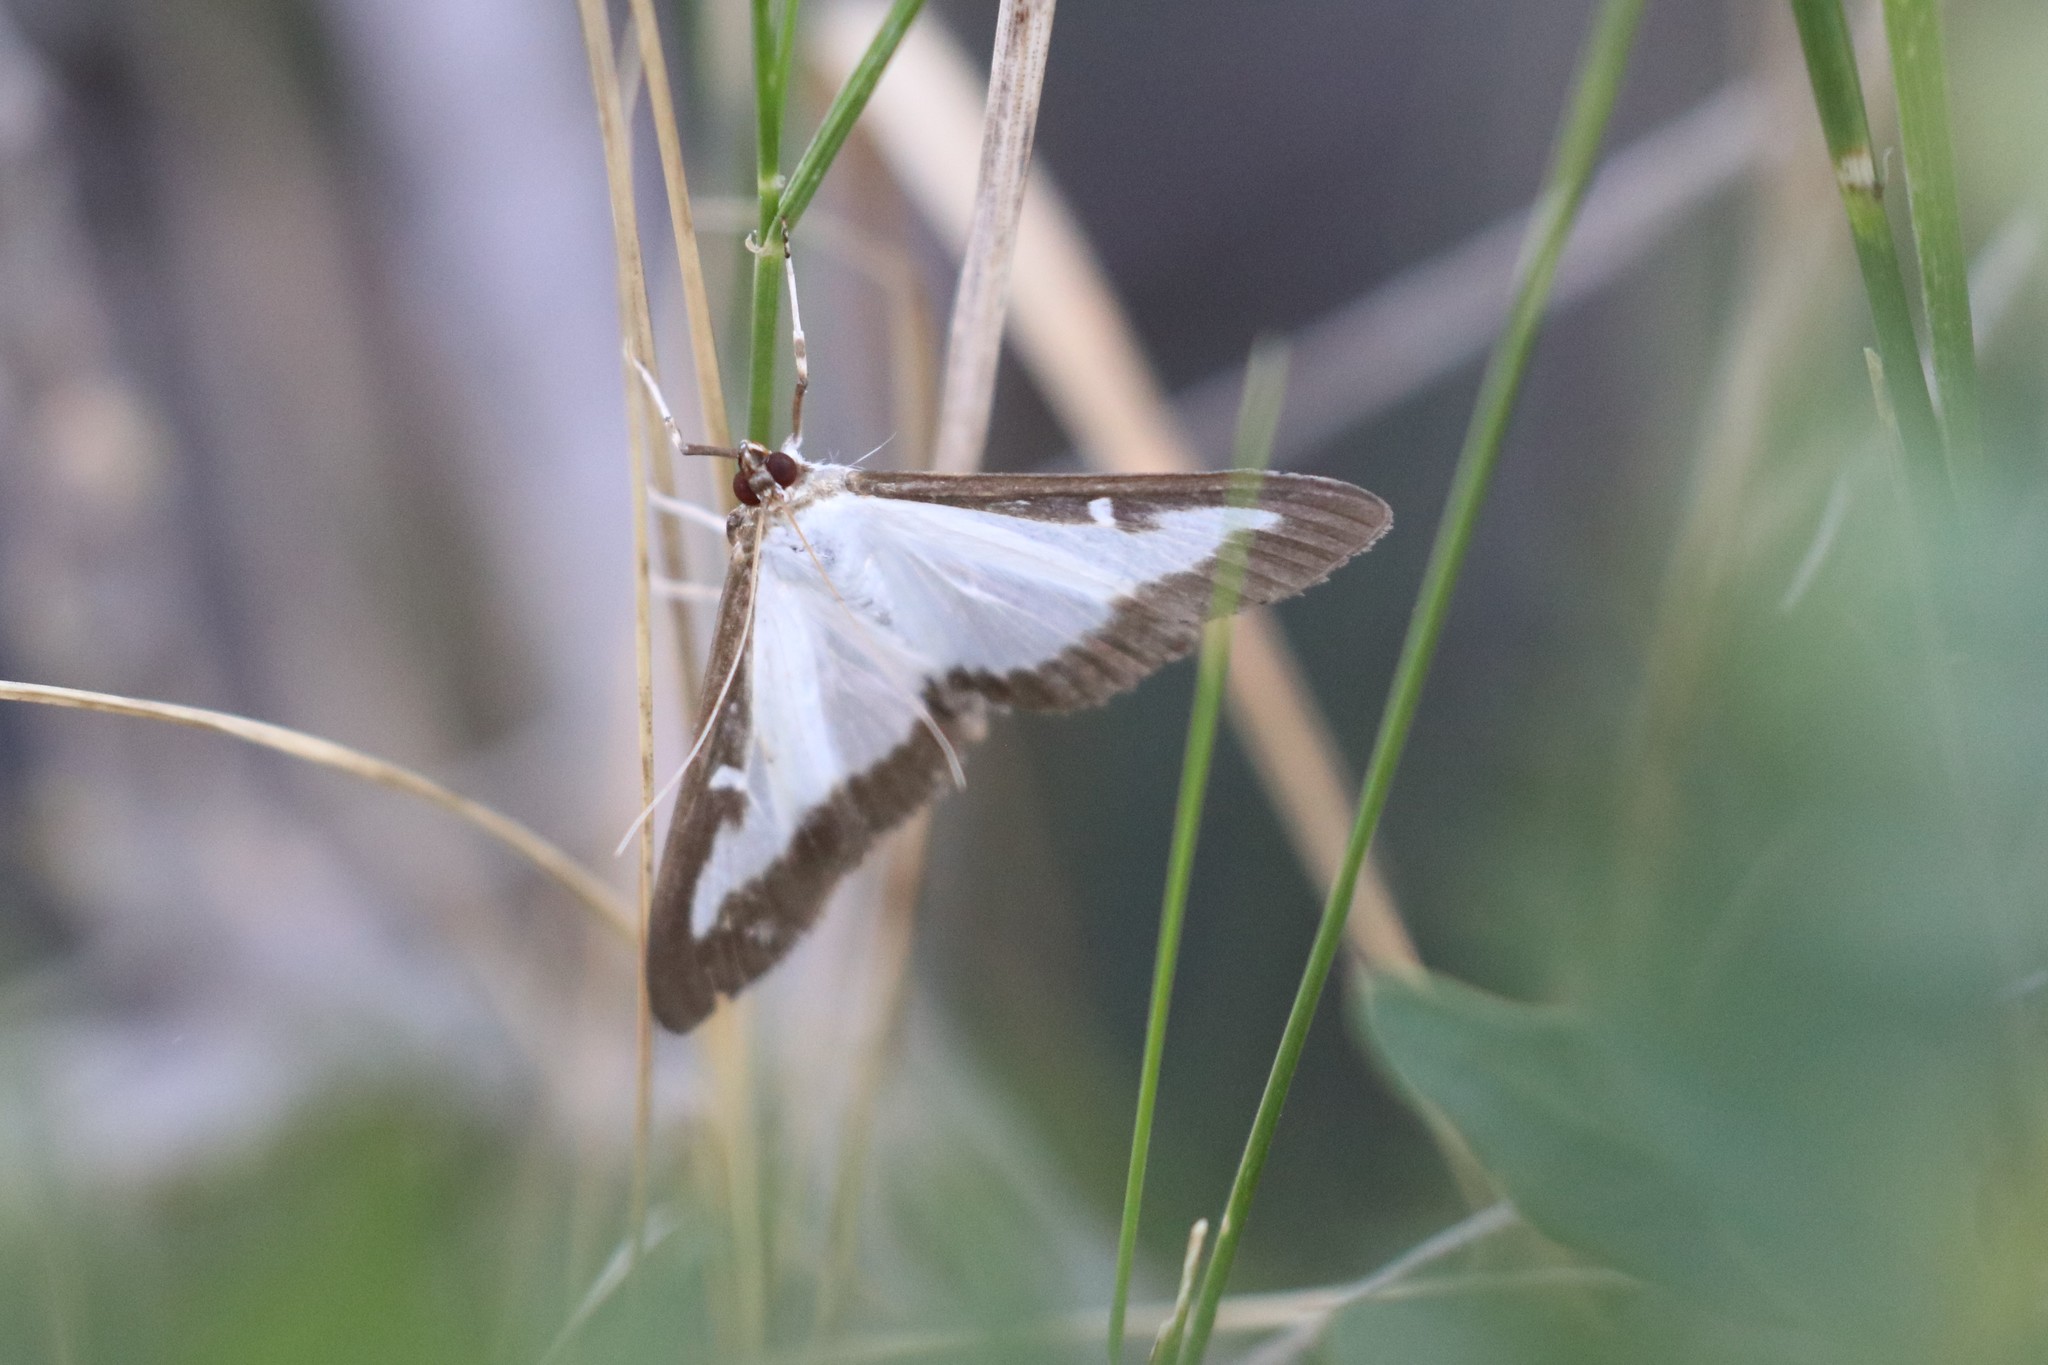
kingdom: Animalia
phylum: Arthropoda
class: Insecta
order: Lepidoptera
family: Crambidae
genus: Cydalima
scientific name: Cydalima perspectalis
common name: Box tree moth
